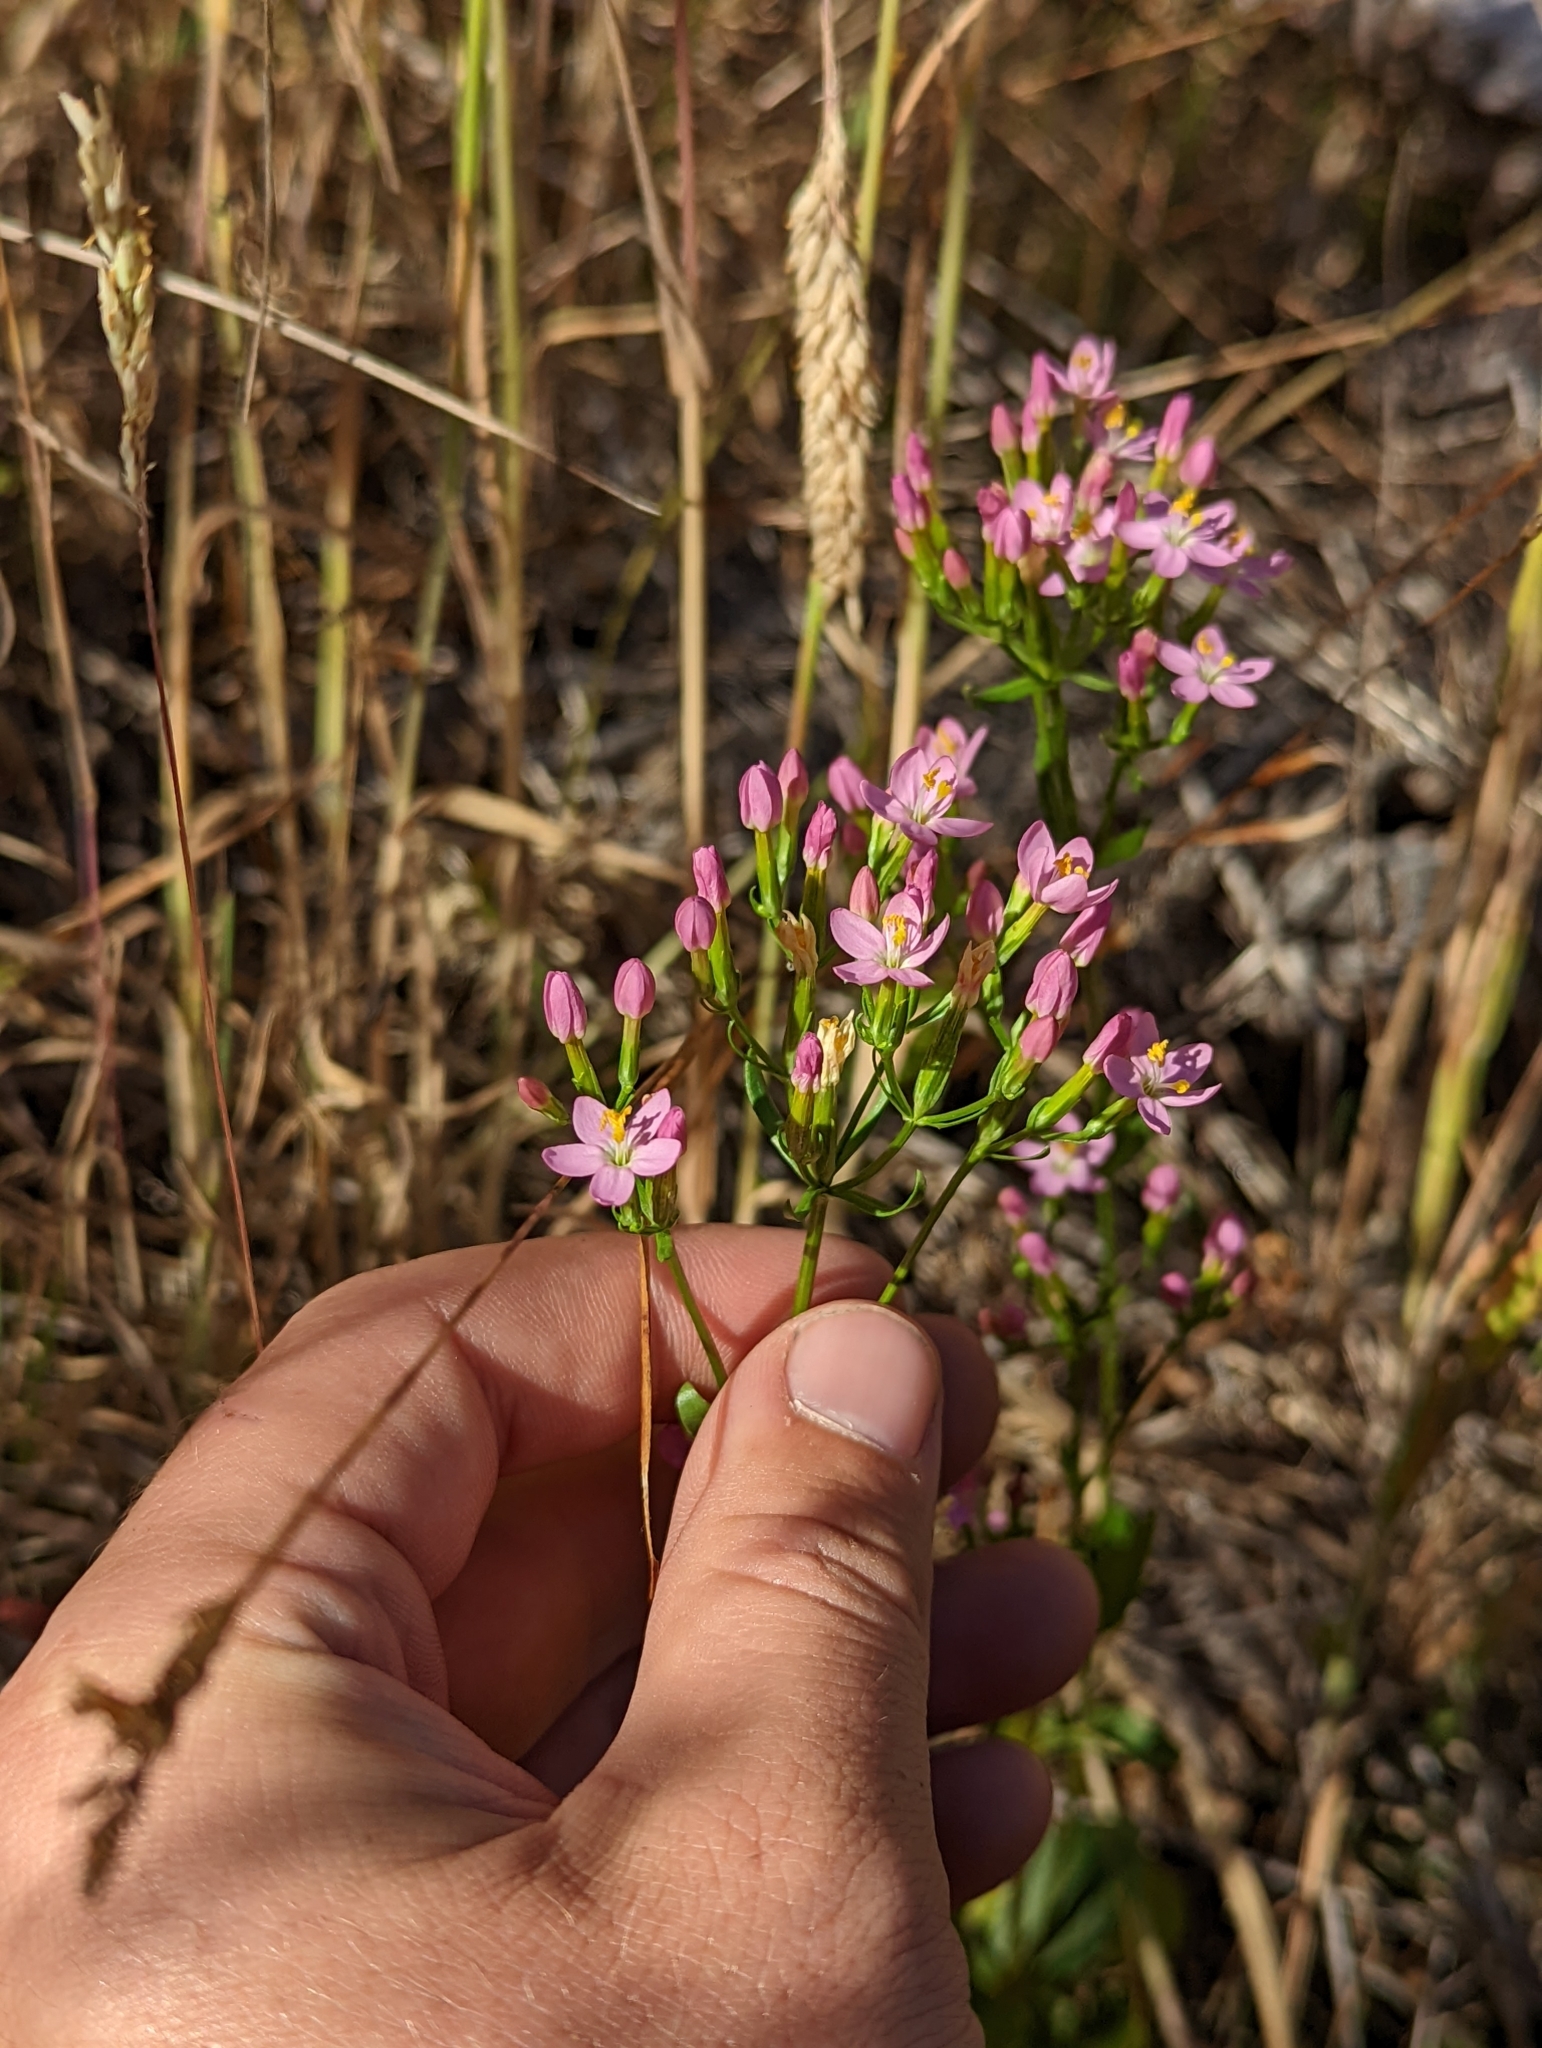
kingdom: Plantae
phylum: Tracheophyta
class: Magnoliopsida
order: Gentianales
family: Gentianaceae
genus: Centaurium
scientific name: Centaurium erythraea
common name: Common centaury
